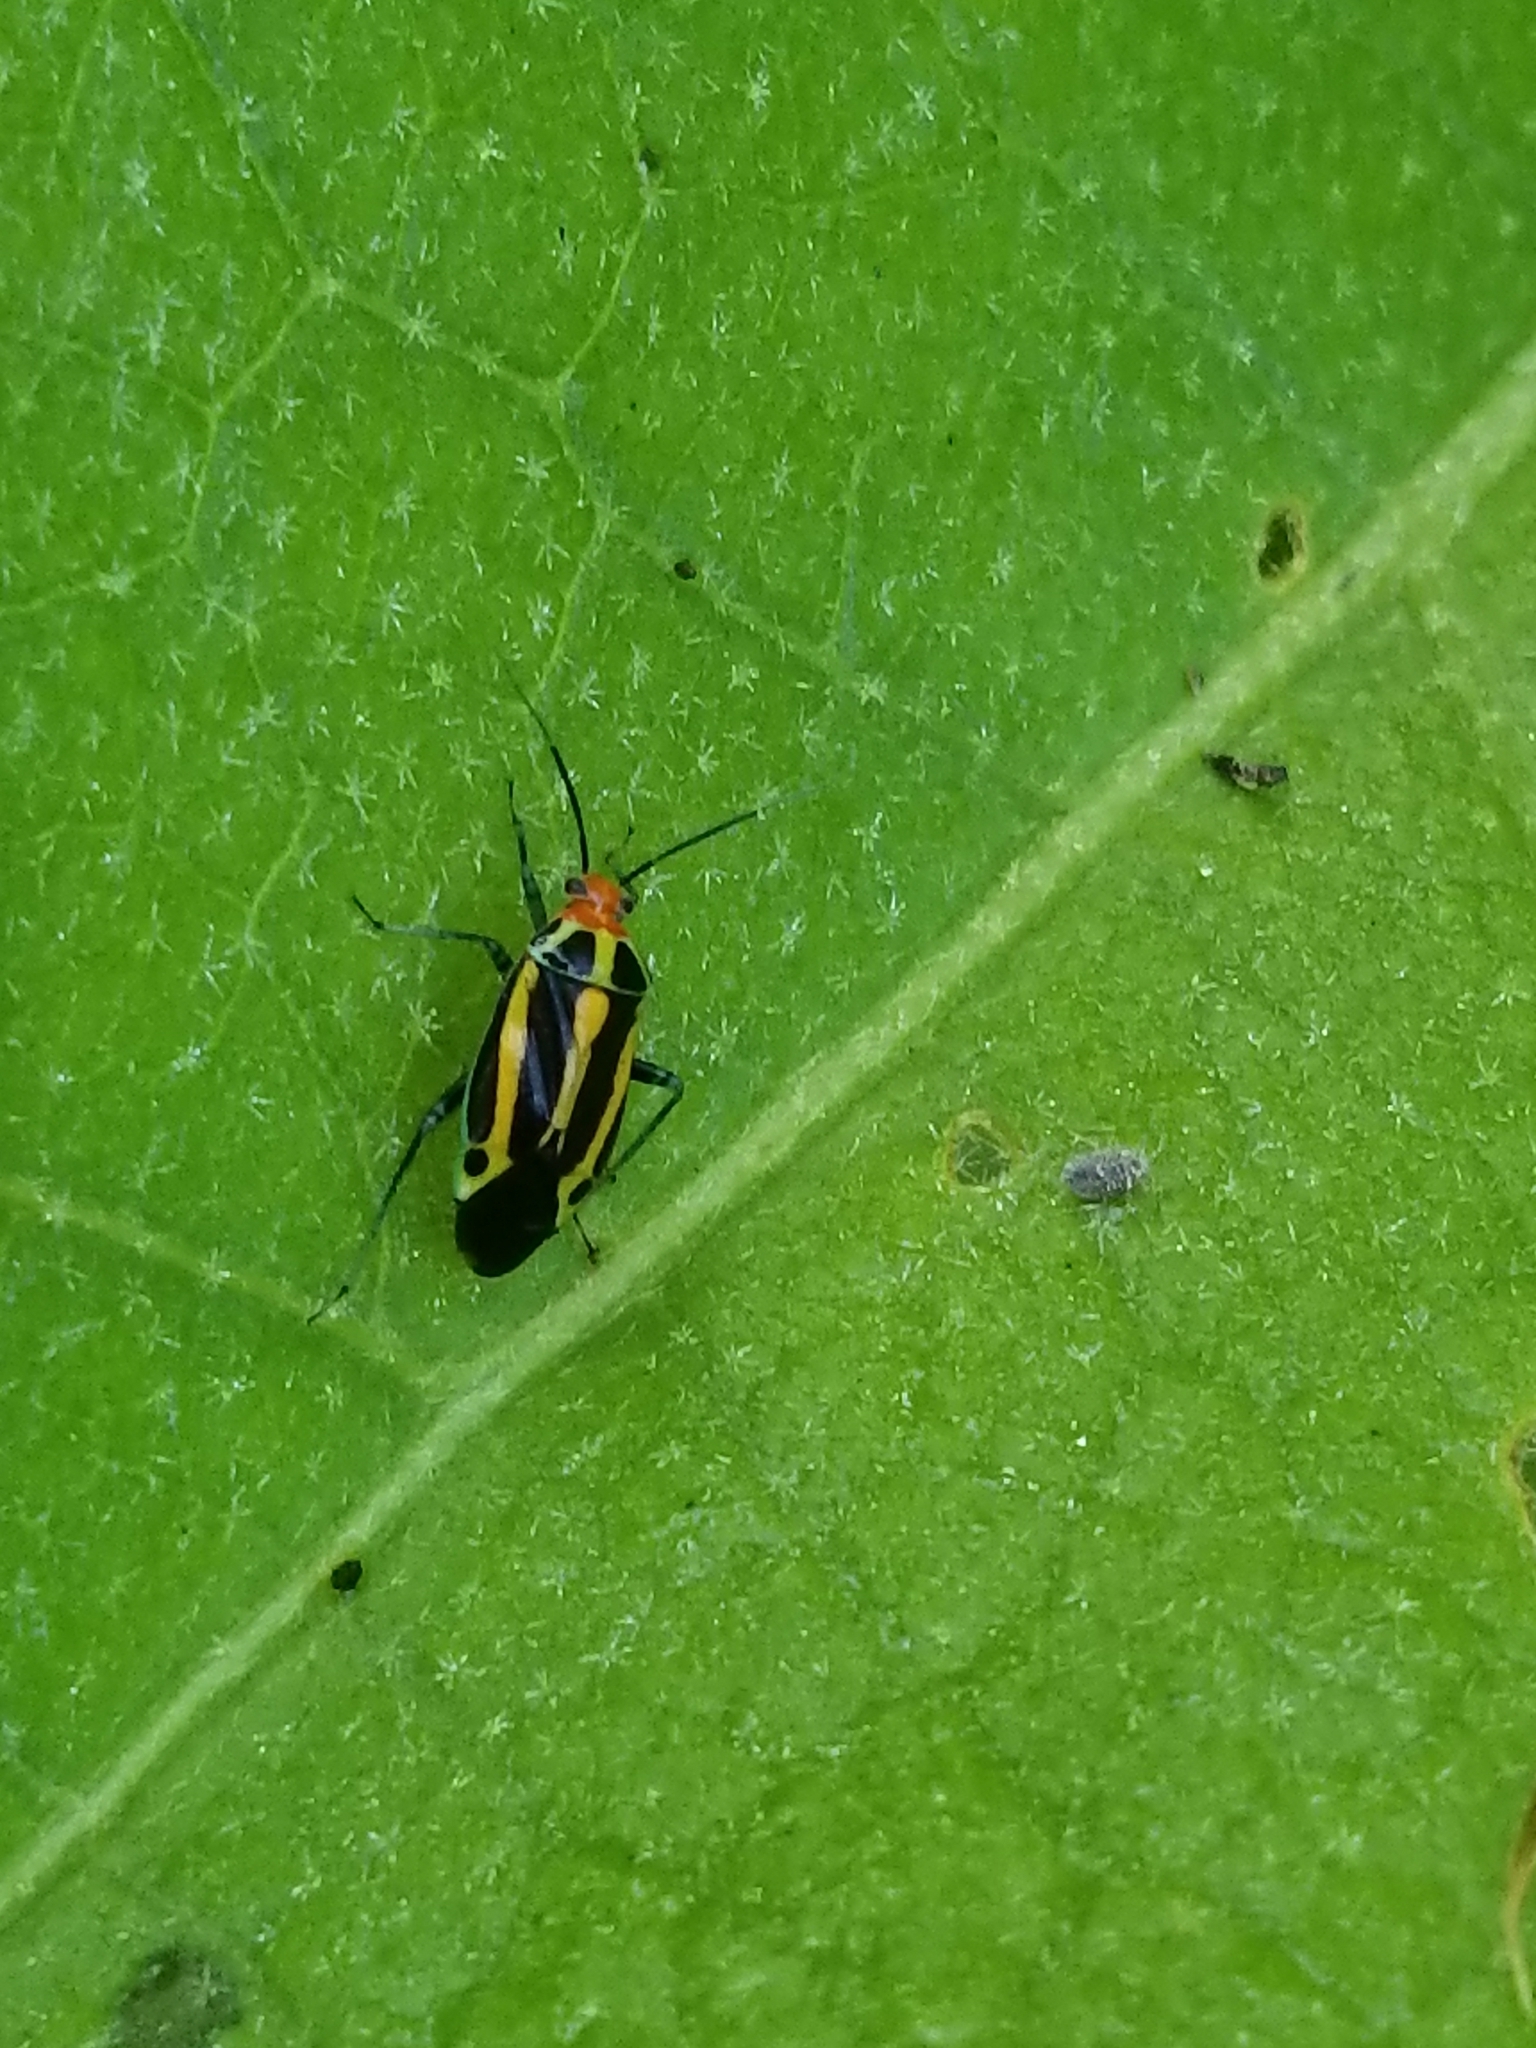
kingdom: Animalia
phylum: Arthropoda
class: Insecta
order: Hemiptera
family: Miridae
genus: Poecilocapsus
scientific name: Poecilocapsus lineatus
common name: Four-lined plant bug
